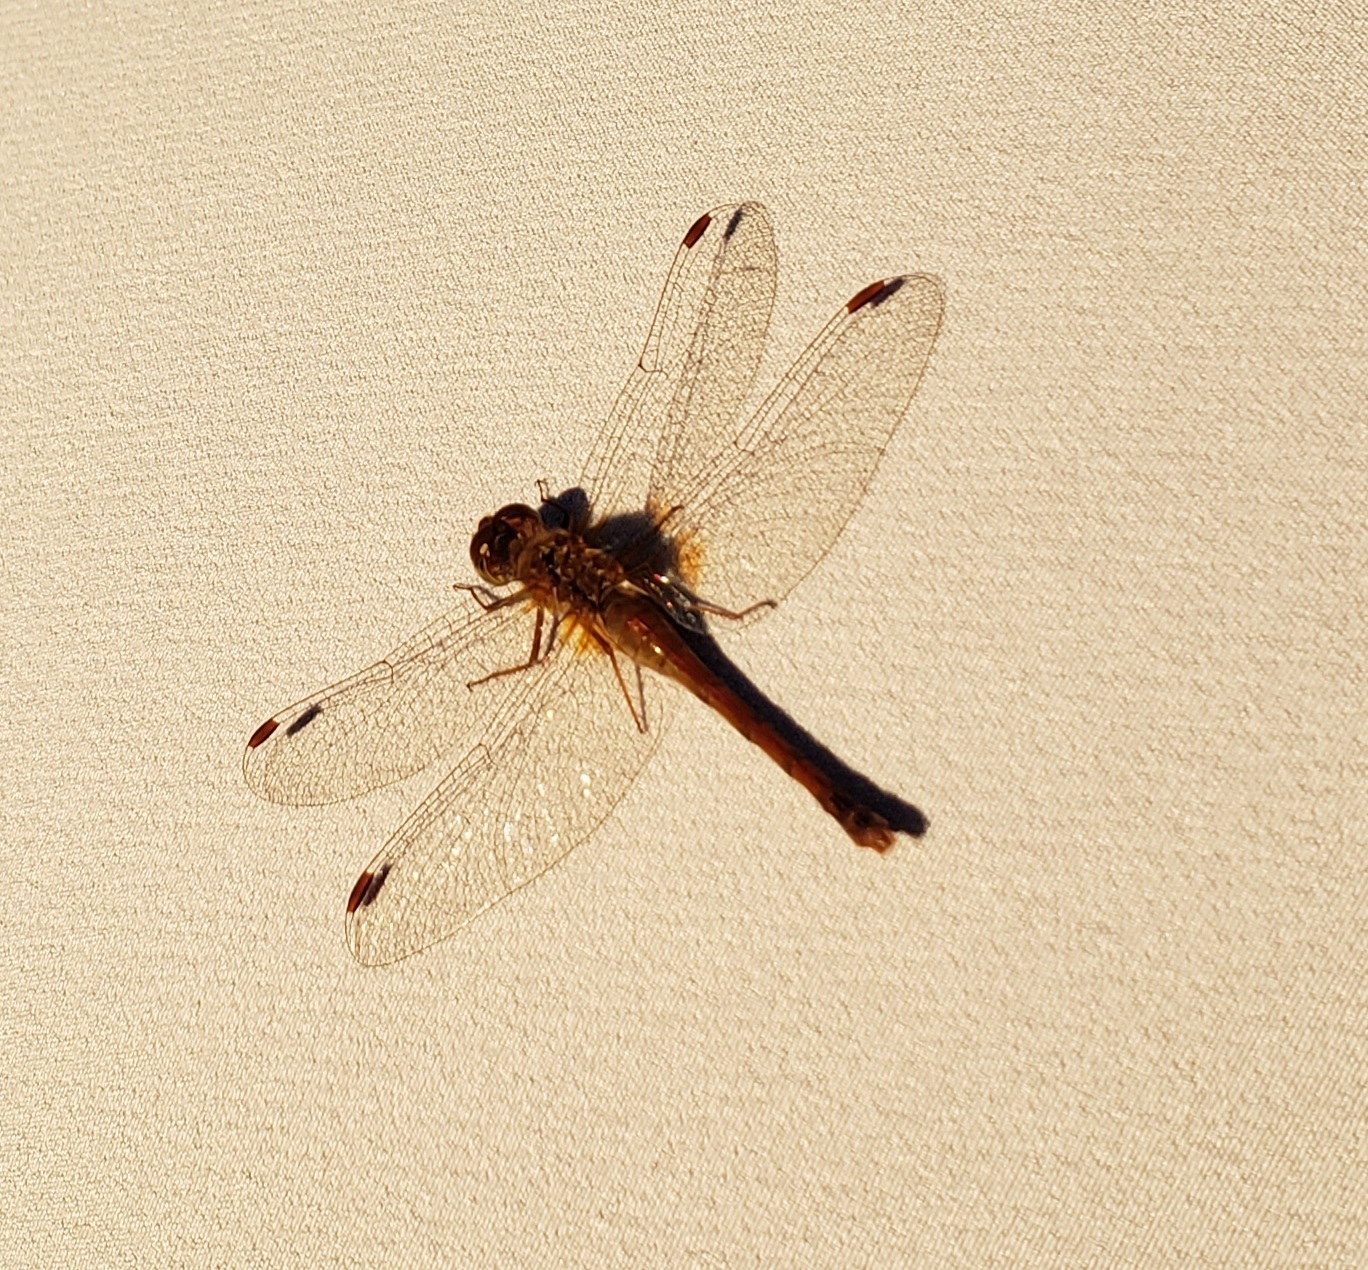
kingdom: Animalia
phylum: Arthropoda
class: Insecta
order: Odonata
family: Libellulidae
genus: Sympetrum
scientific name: Sympetrum vicinum
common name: Autumn meadowhawk
